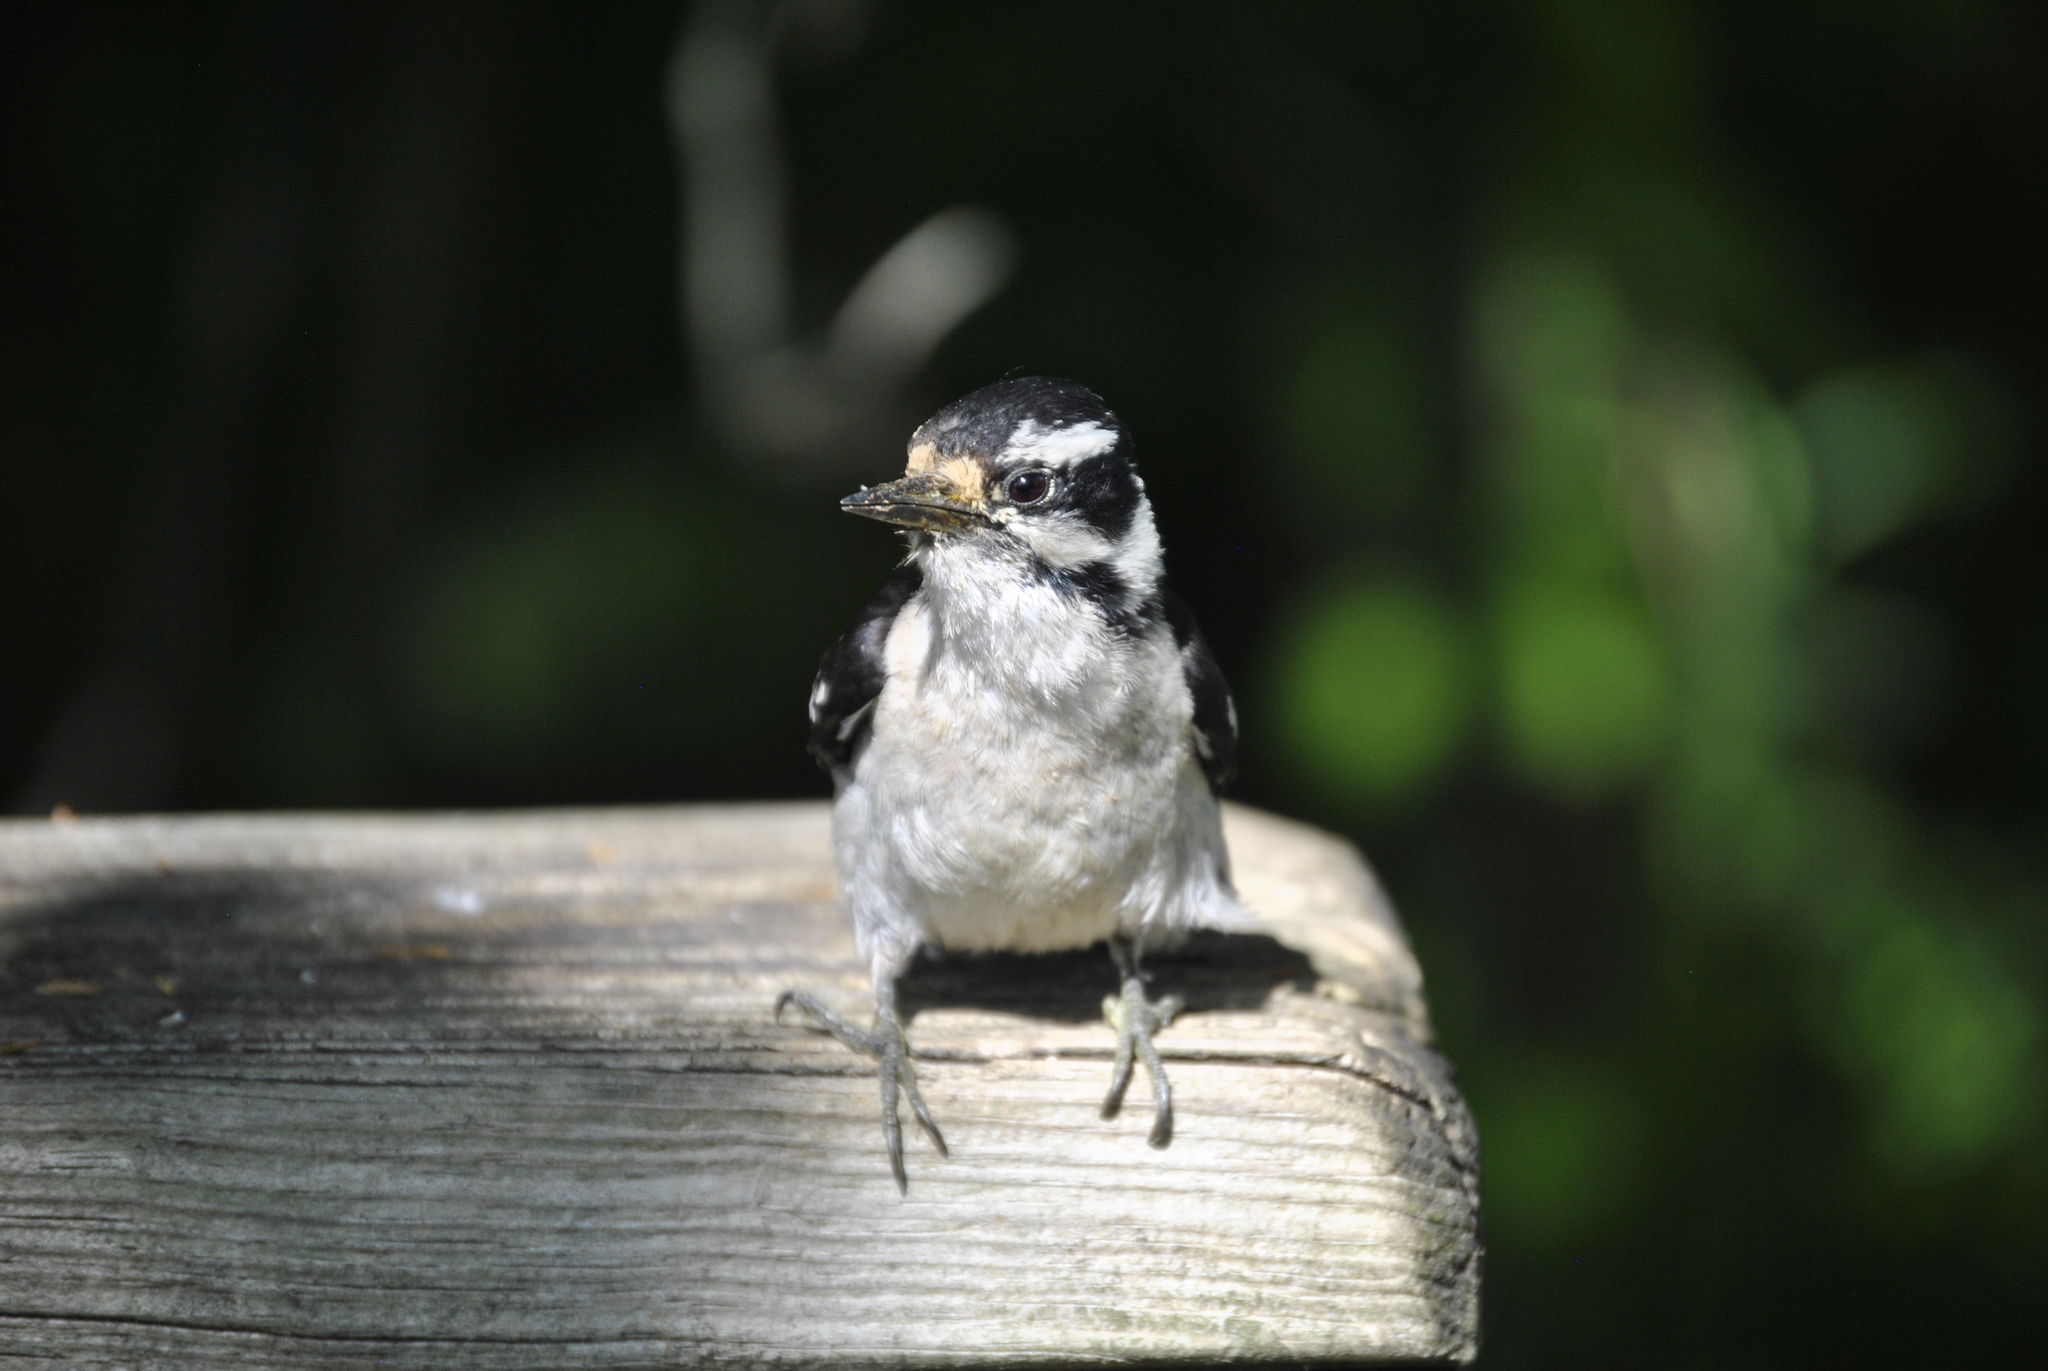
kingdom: Animalia
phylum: Chordata
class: Aves
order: Piciformes
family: Picidae
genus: Dryobates
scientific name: Dryobates pubescens
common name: Downy woodpecker
